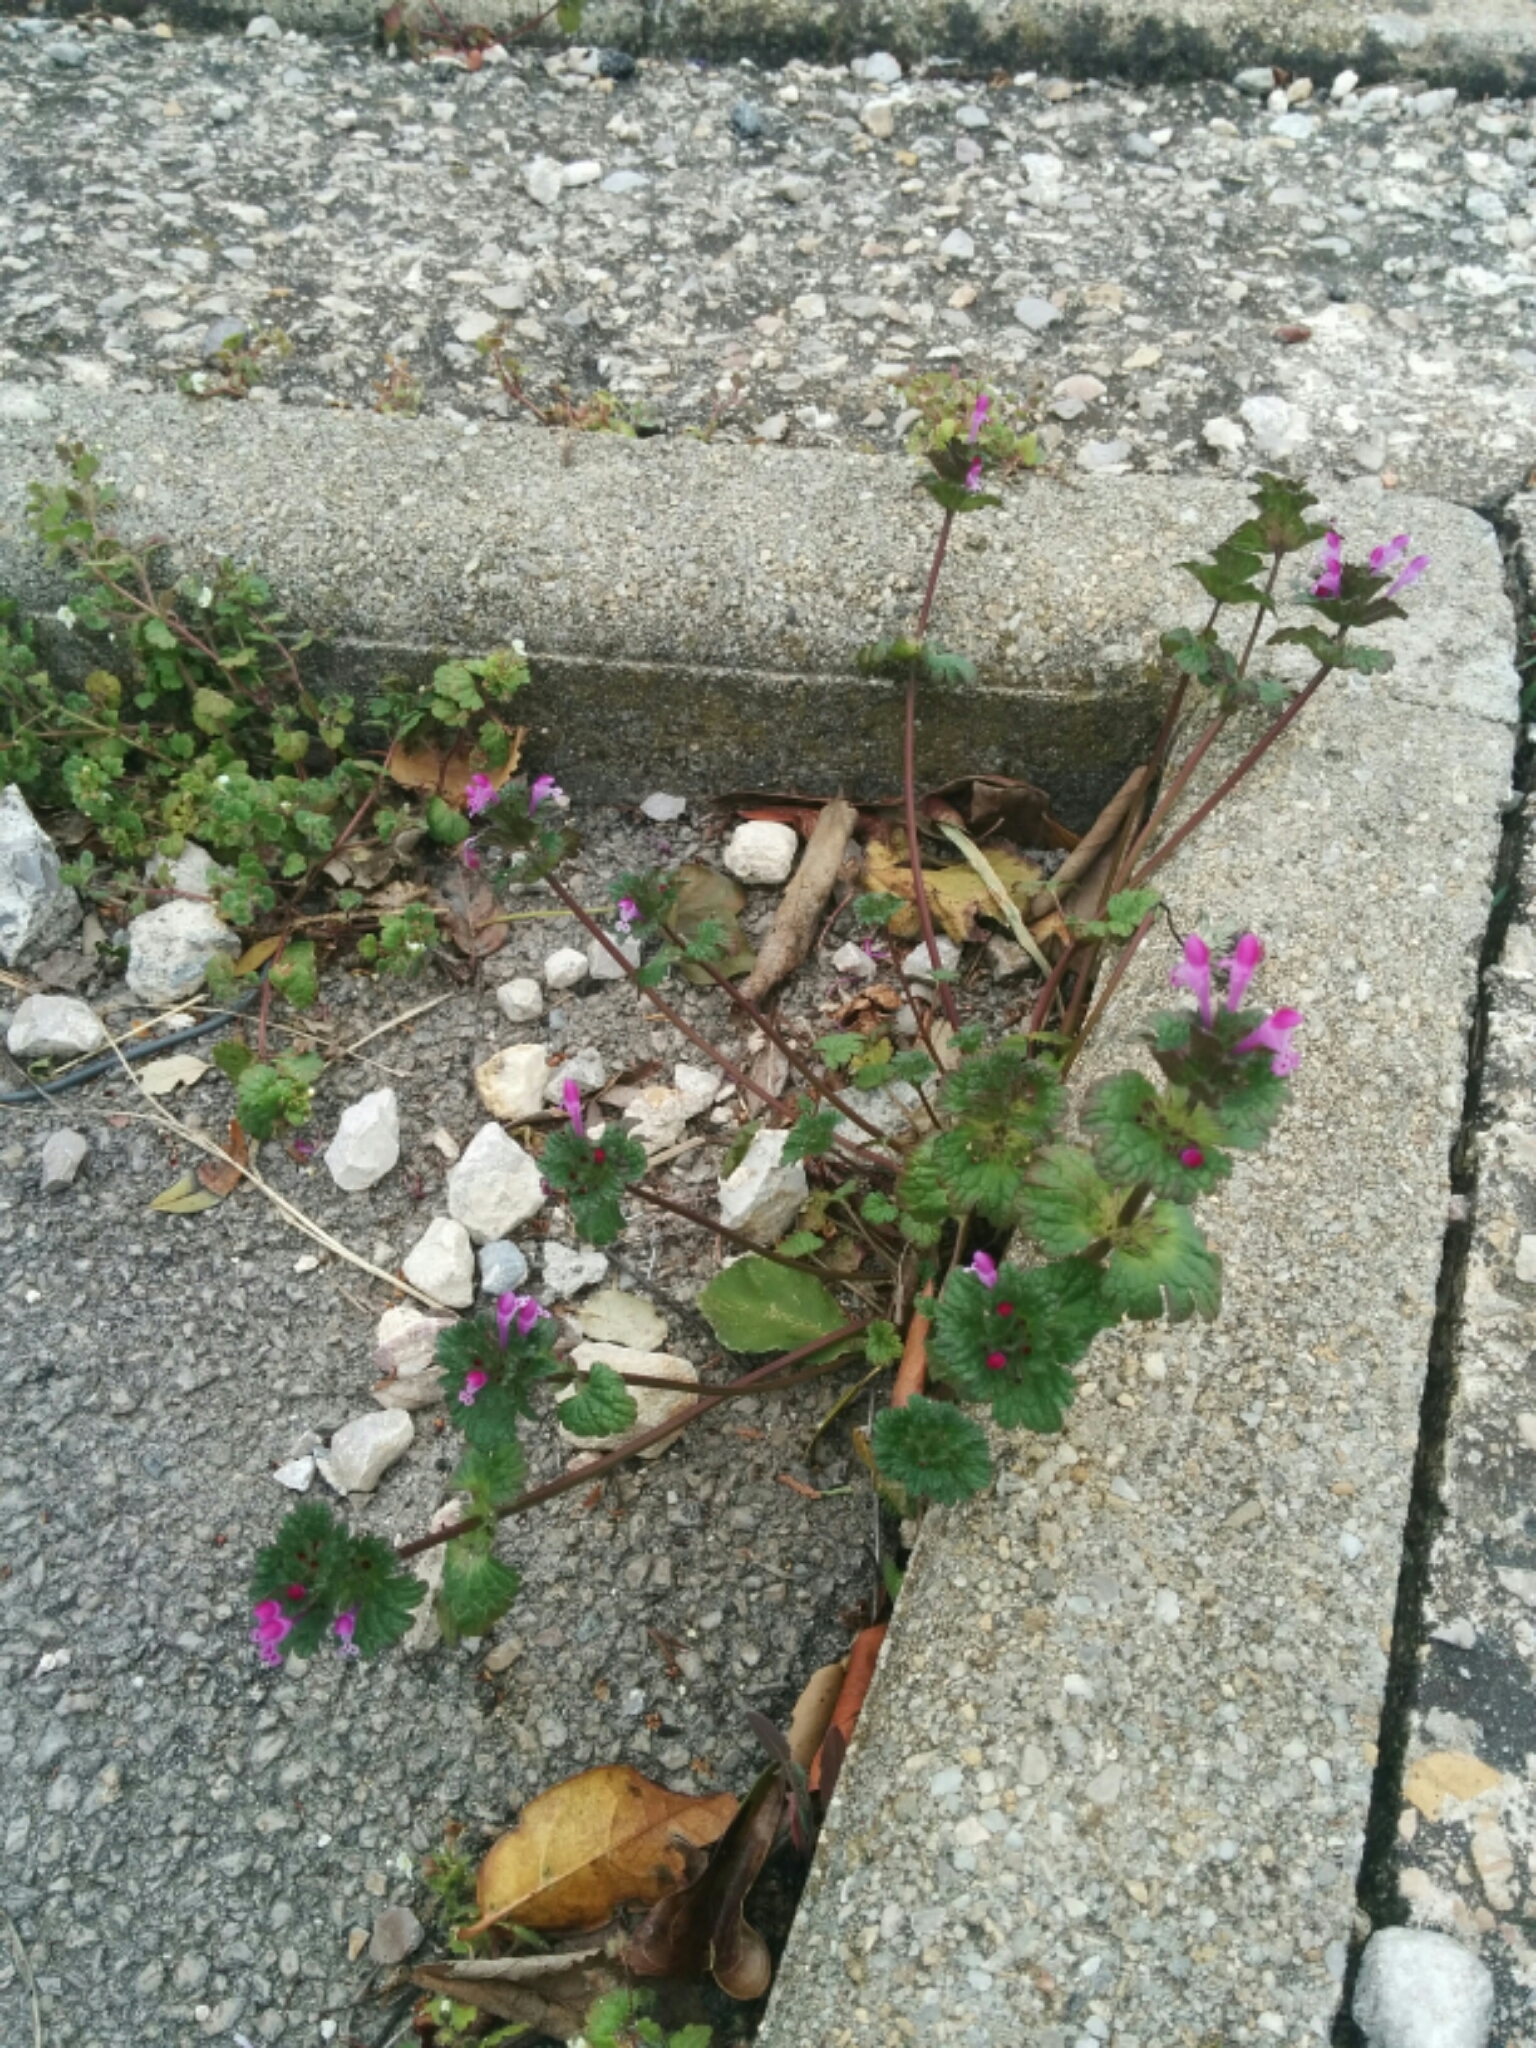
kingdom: Plantae
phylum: Tracheophyta
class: Magnoliopsida
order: Lamiales
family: Lamiaceae
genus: Lamium
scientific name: Lamium amplexicaule
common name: Henbit dead-nettle
